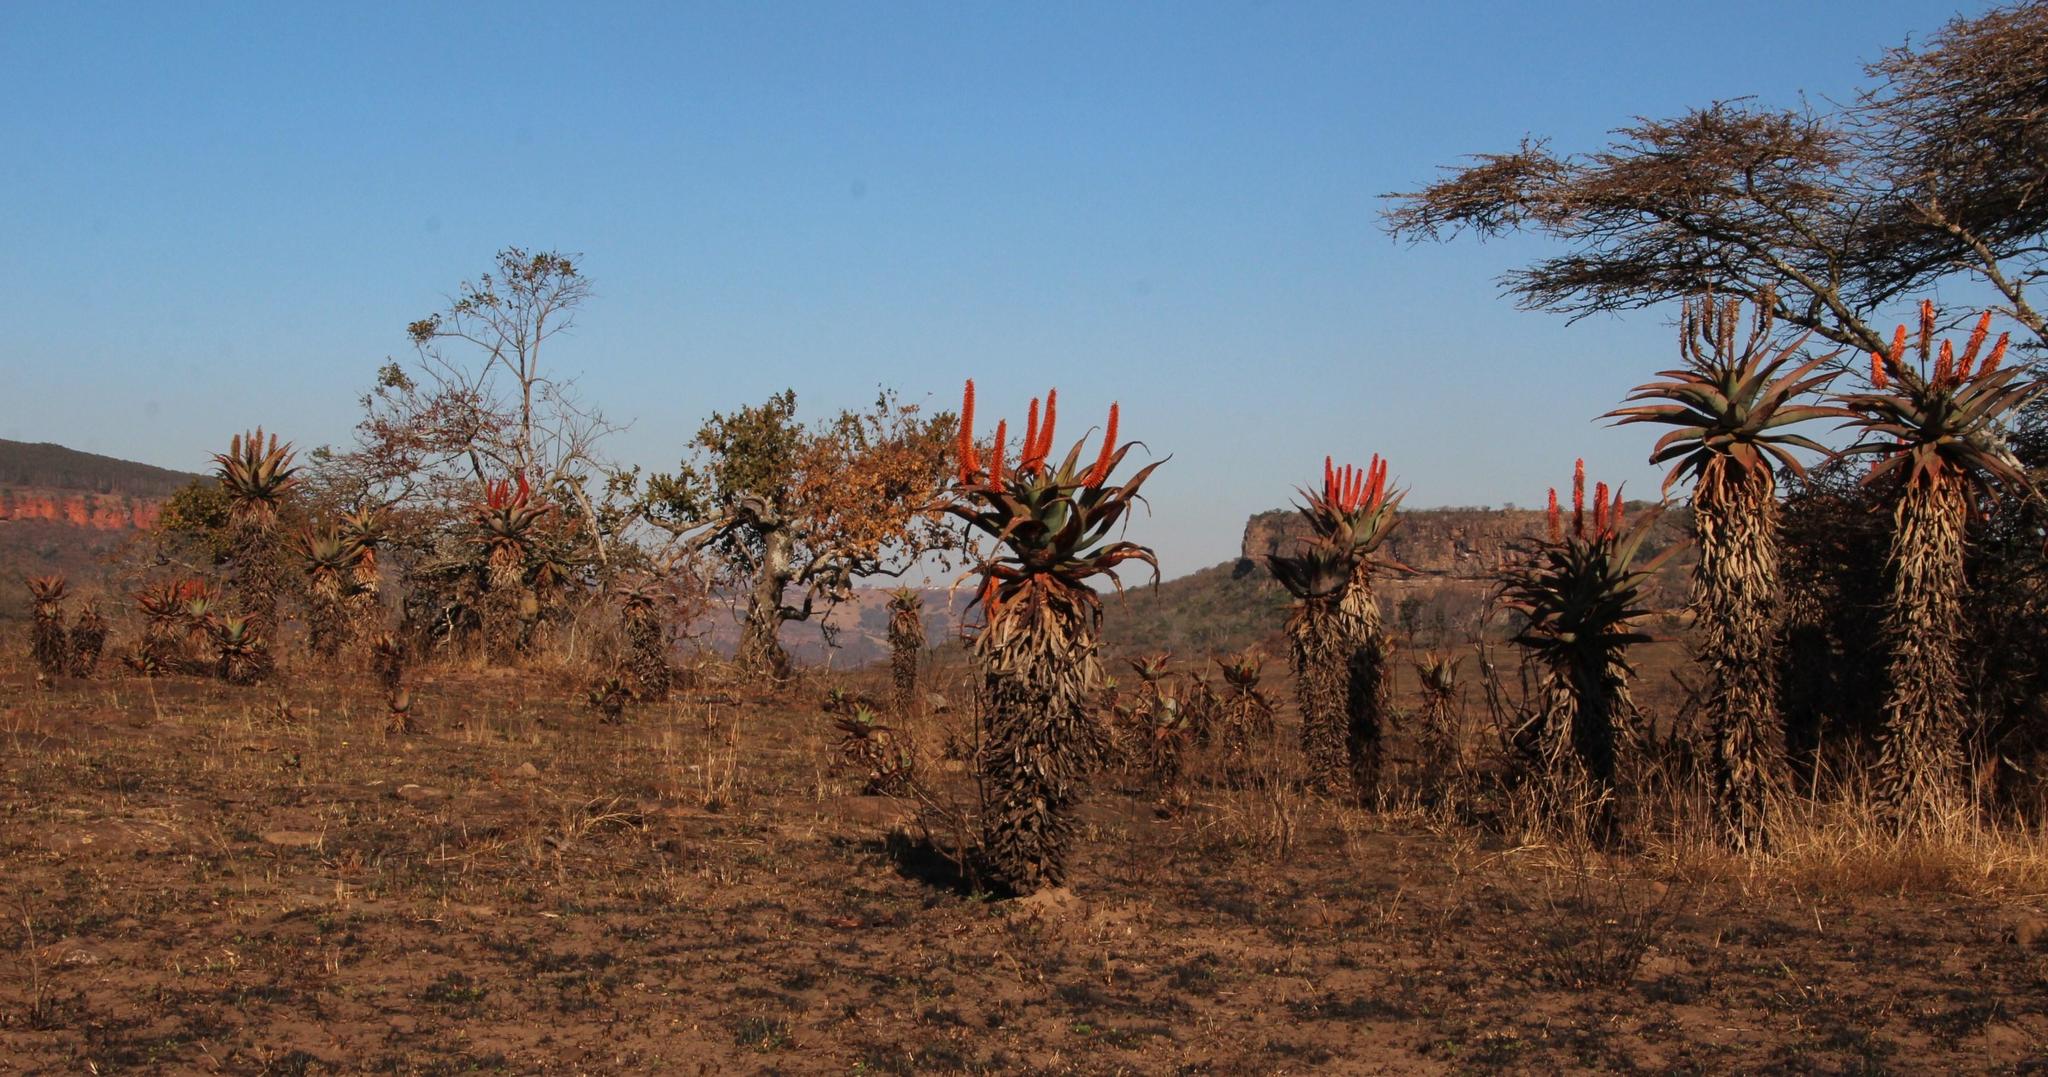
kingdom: Plantae
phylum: Tracheophyta
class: Liliopsida
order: Asparagales
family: Asphodelaceae
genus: Aloe
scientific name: Aloe ferox
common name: Bitter aloe
